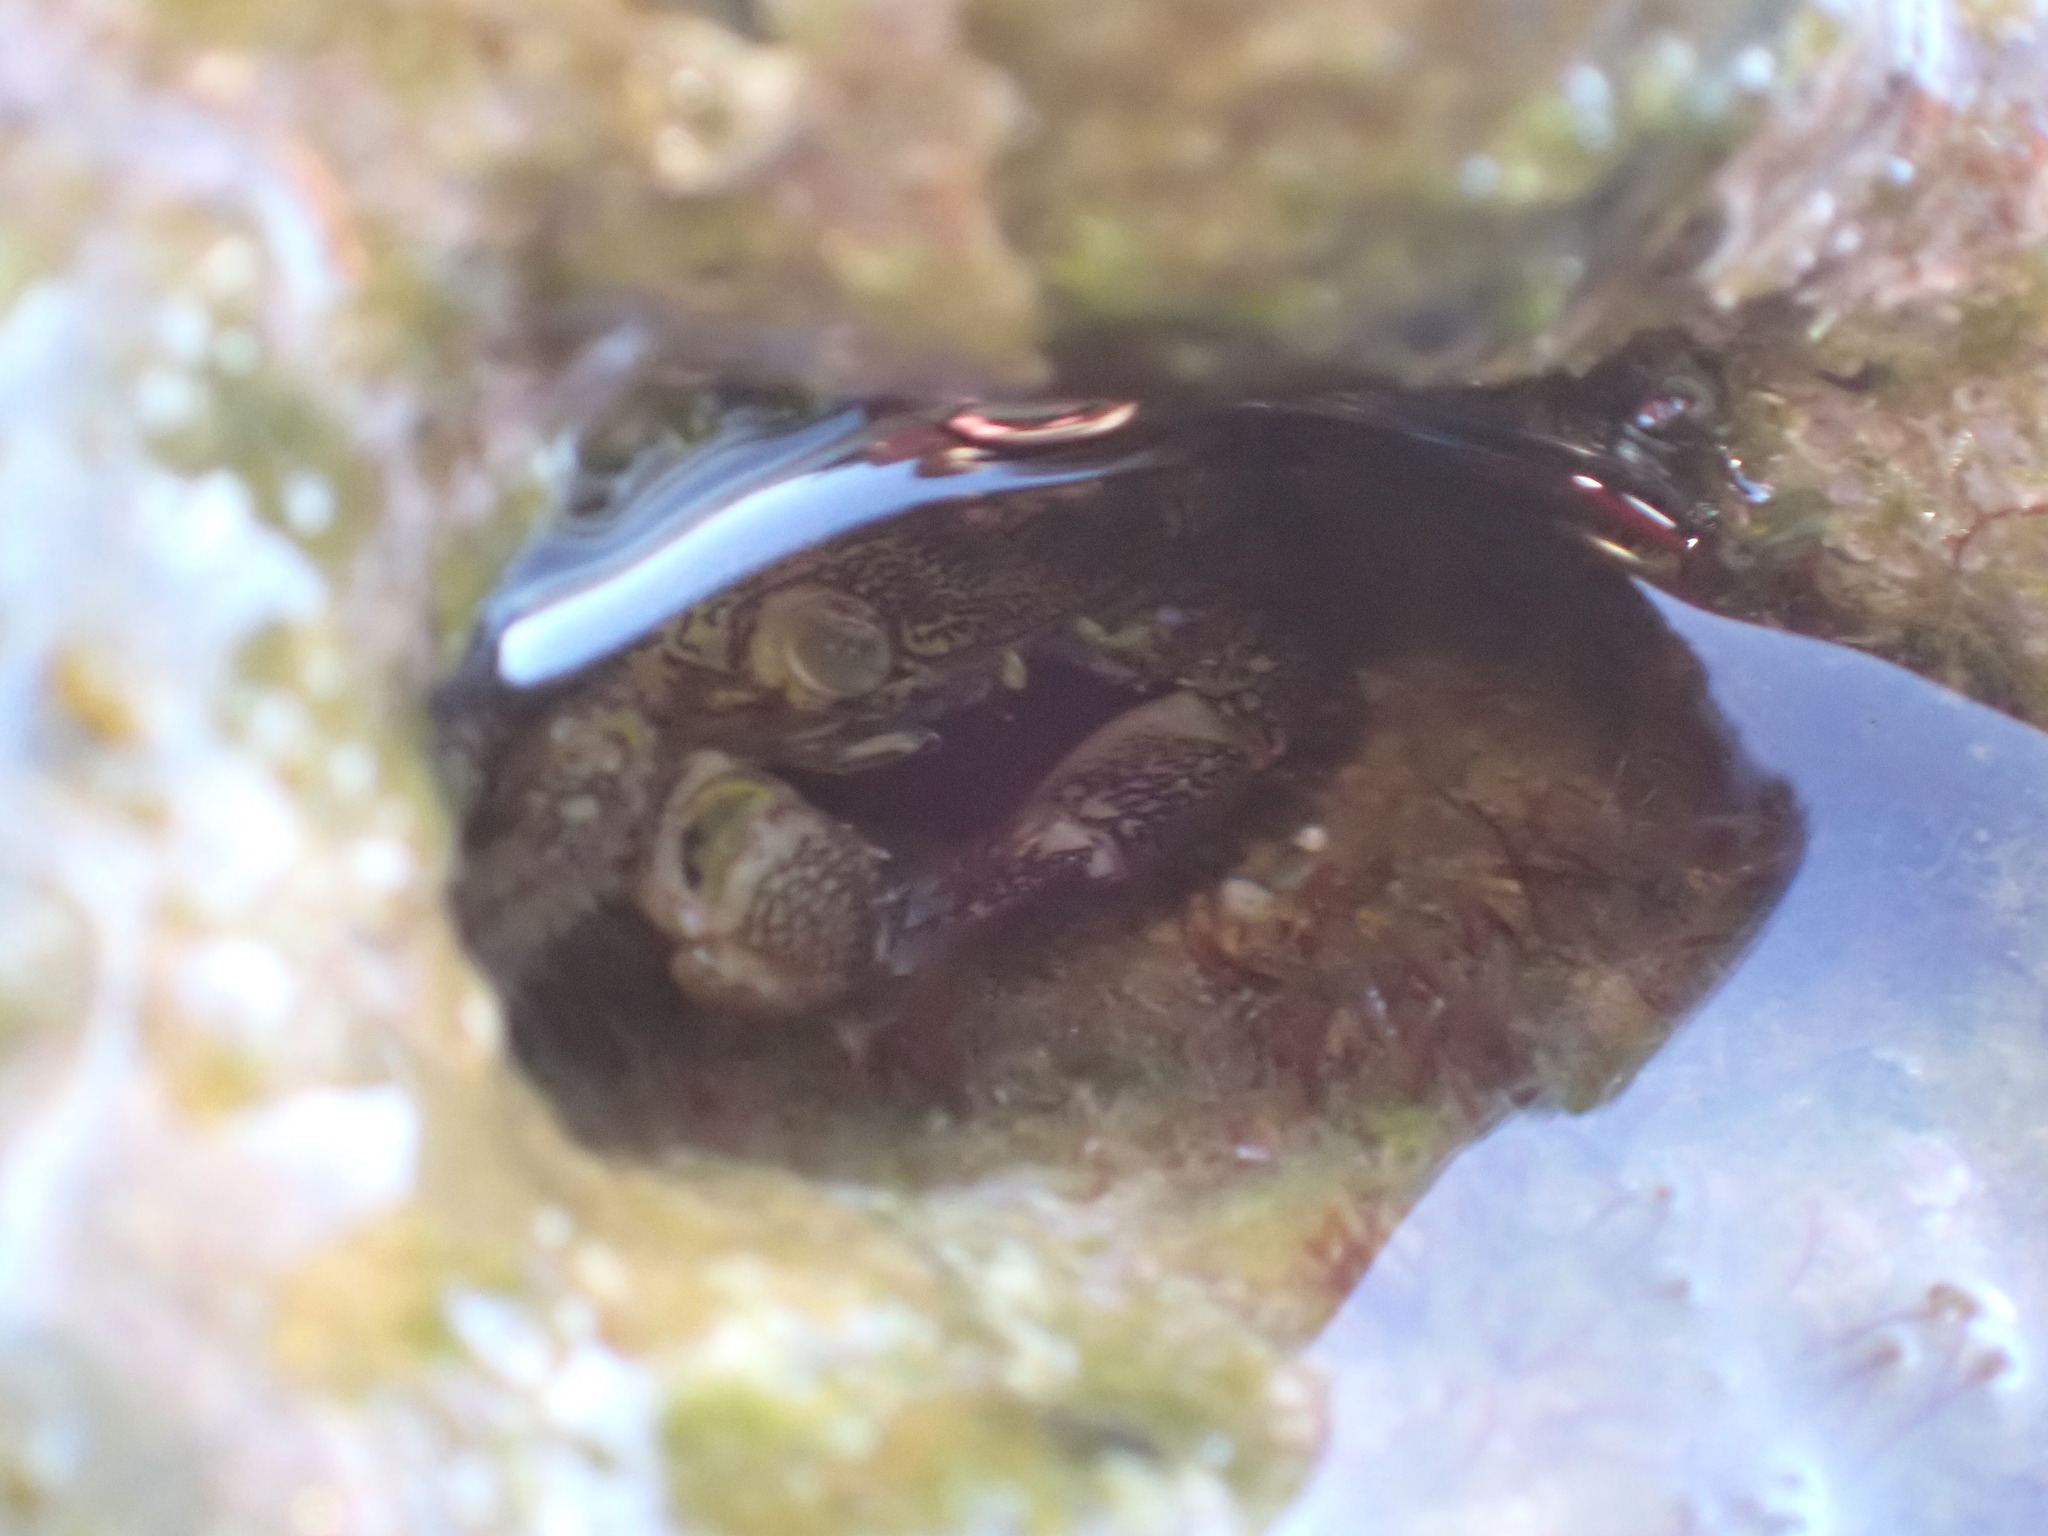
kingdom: Animalia
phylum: Arthropoda
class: Malacostraca
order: Decapoda
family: Grapsidae
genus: Pachygrapsus
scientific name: Pachygrapsus marmoratus
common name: Marbled rock crab
